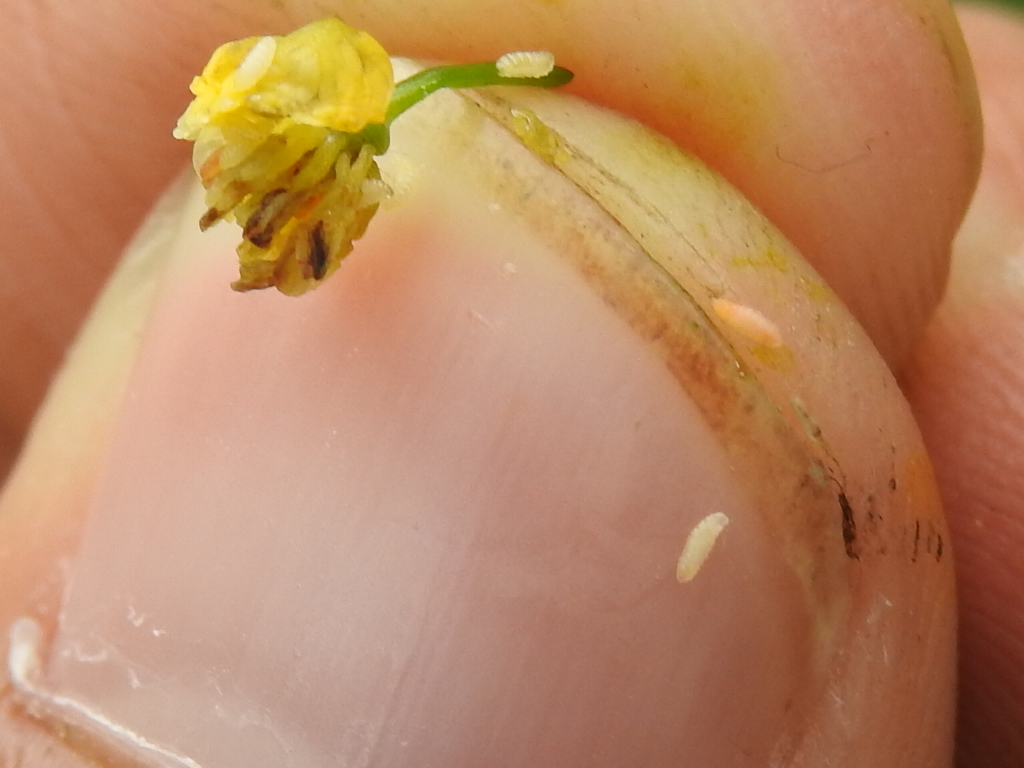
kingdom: Animalia
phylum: Arthropoda
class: Insecta
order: Diptera
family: Cecidomyiidae
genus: Jaapiella
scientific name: Jaapiella chelidonii
